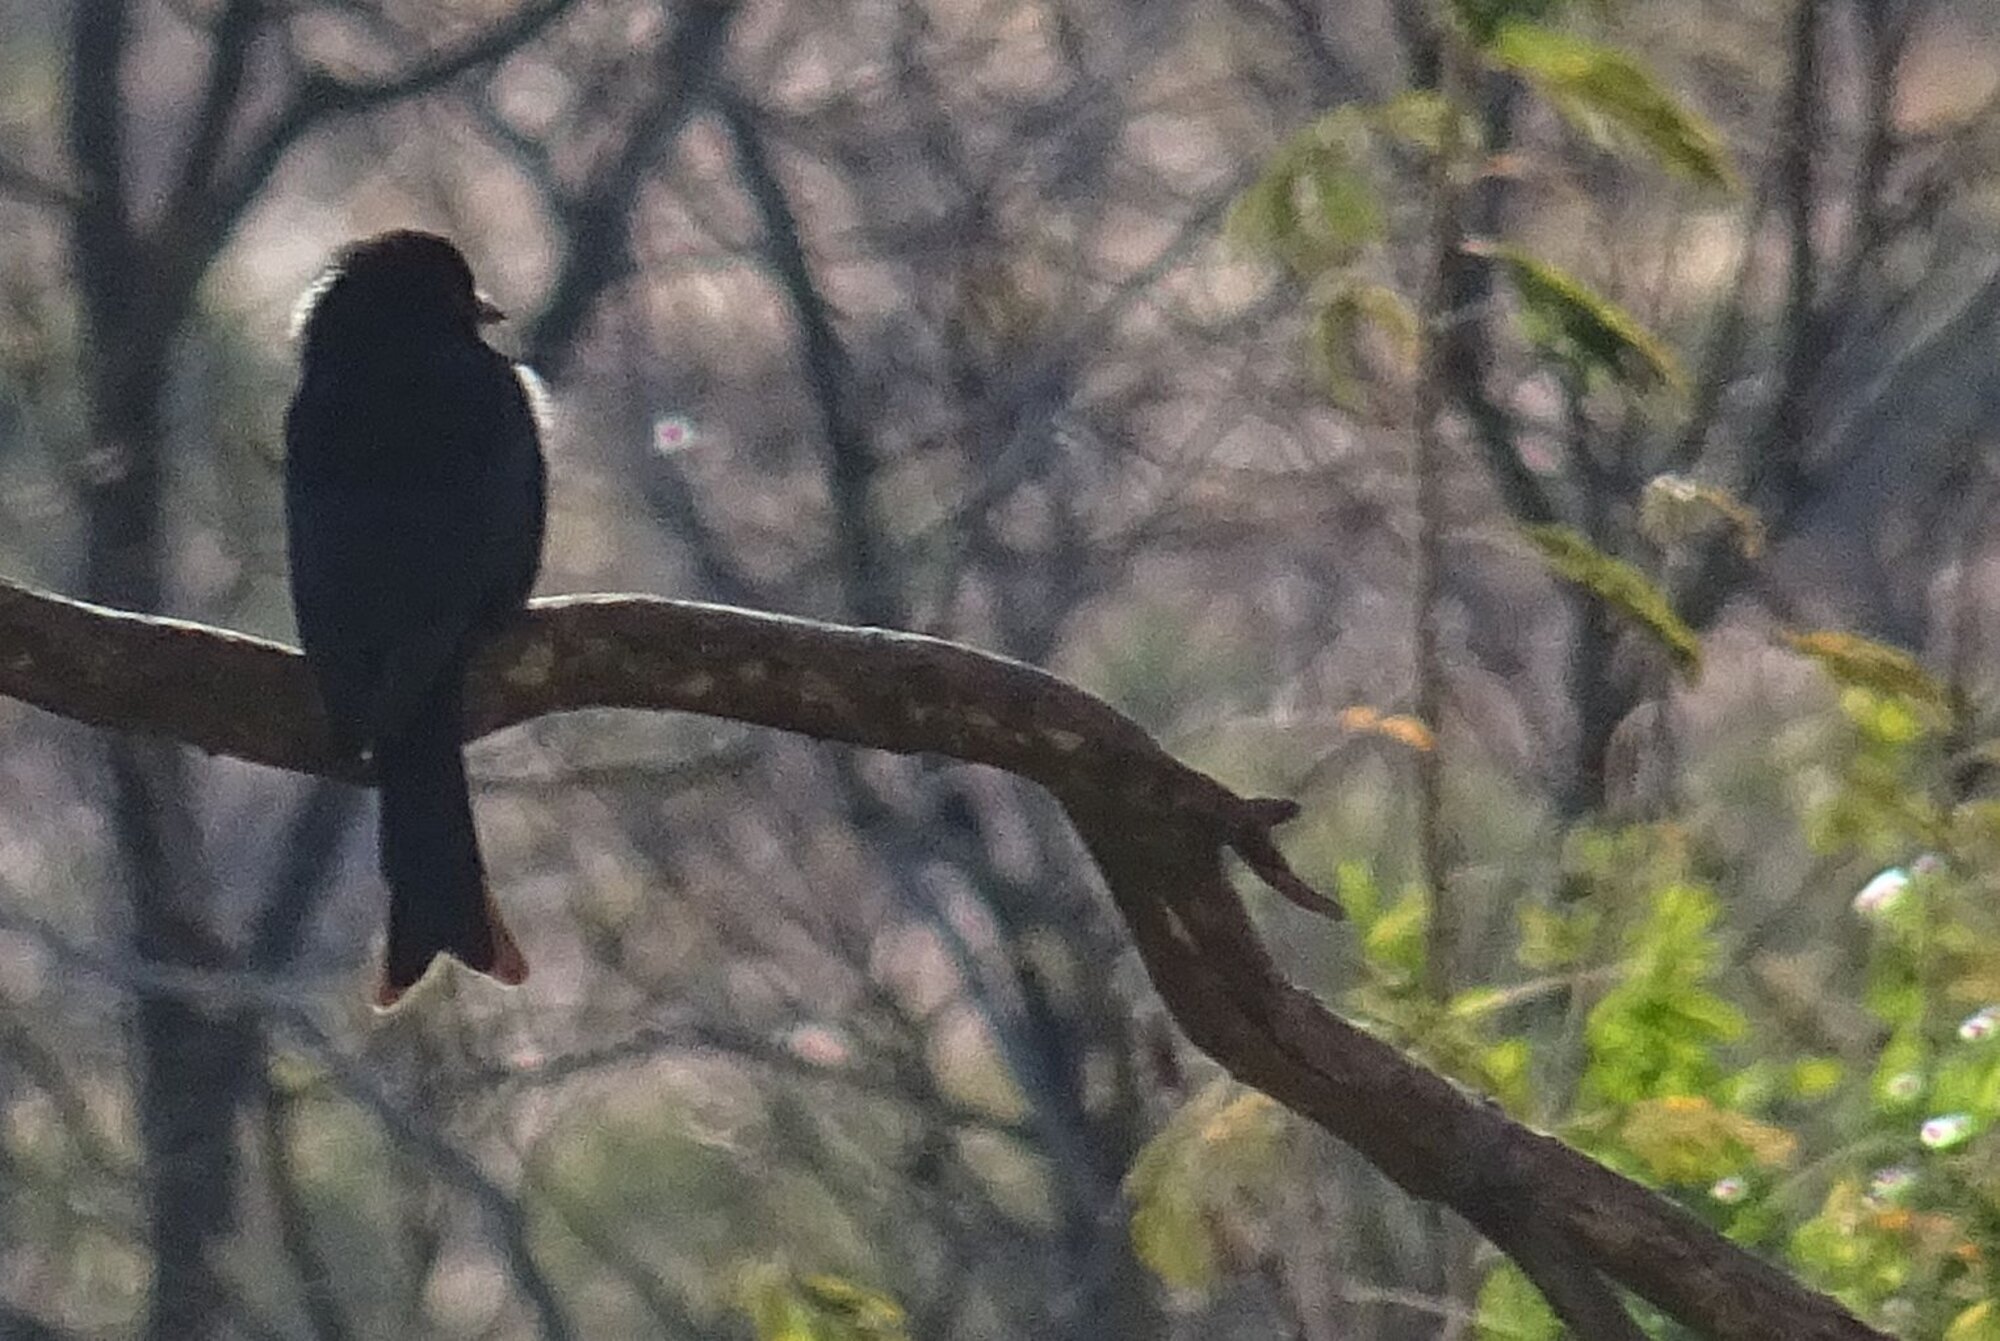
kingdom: Animalia
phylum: Chordata
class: Aves
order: Passeriformes
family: Dicruridae
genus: Dicrurus
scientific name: Dicrurus adsimilis
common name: Fork-tailed drongo
